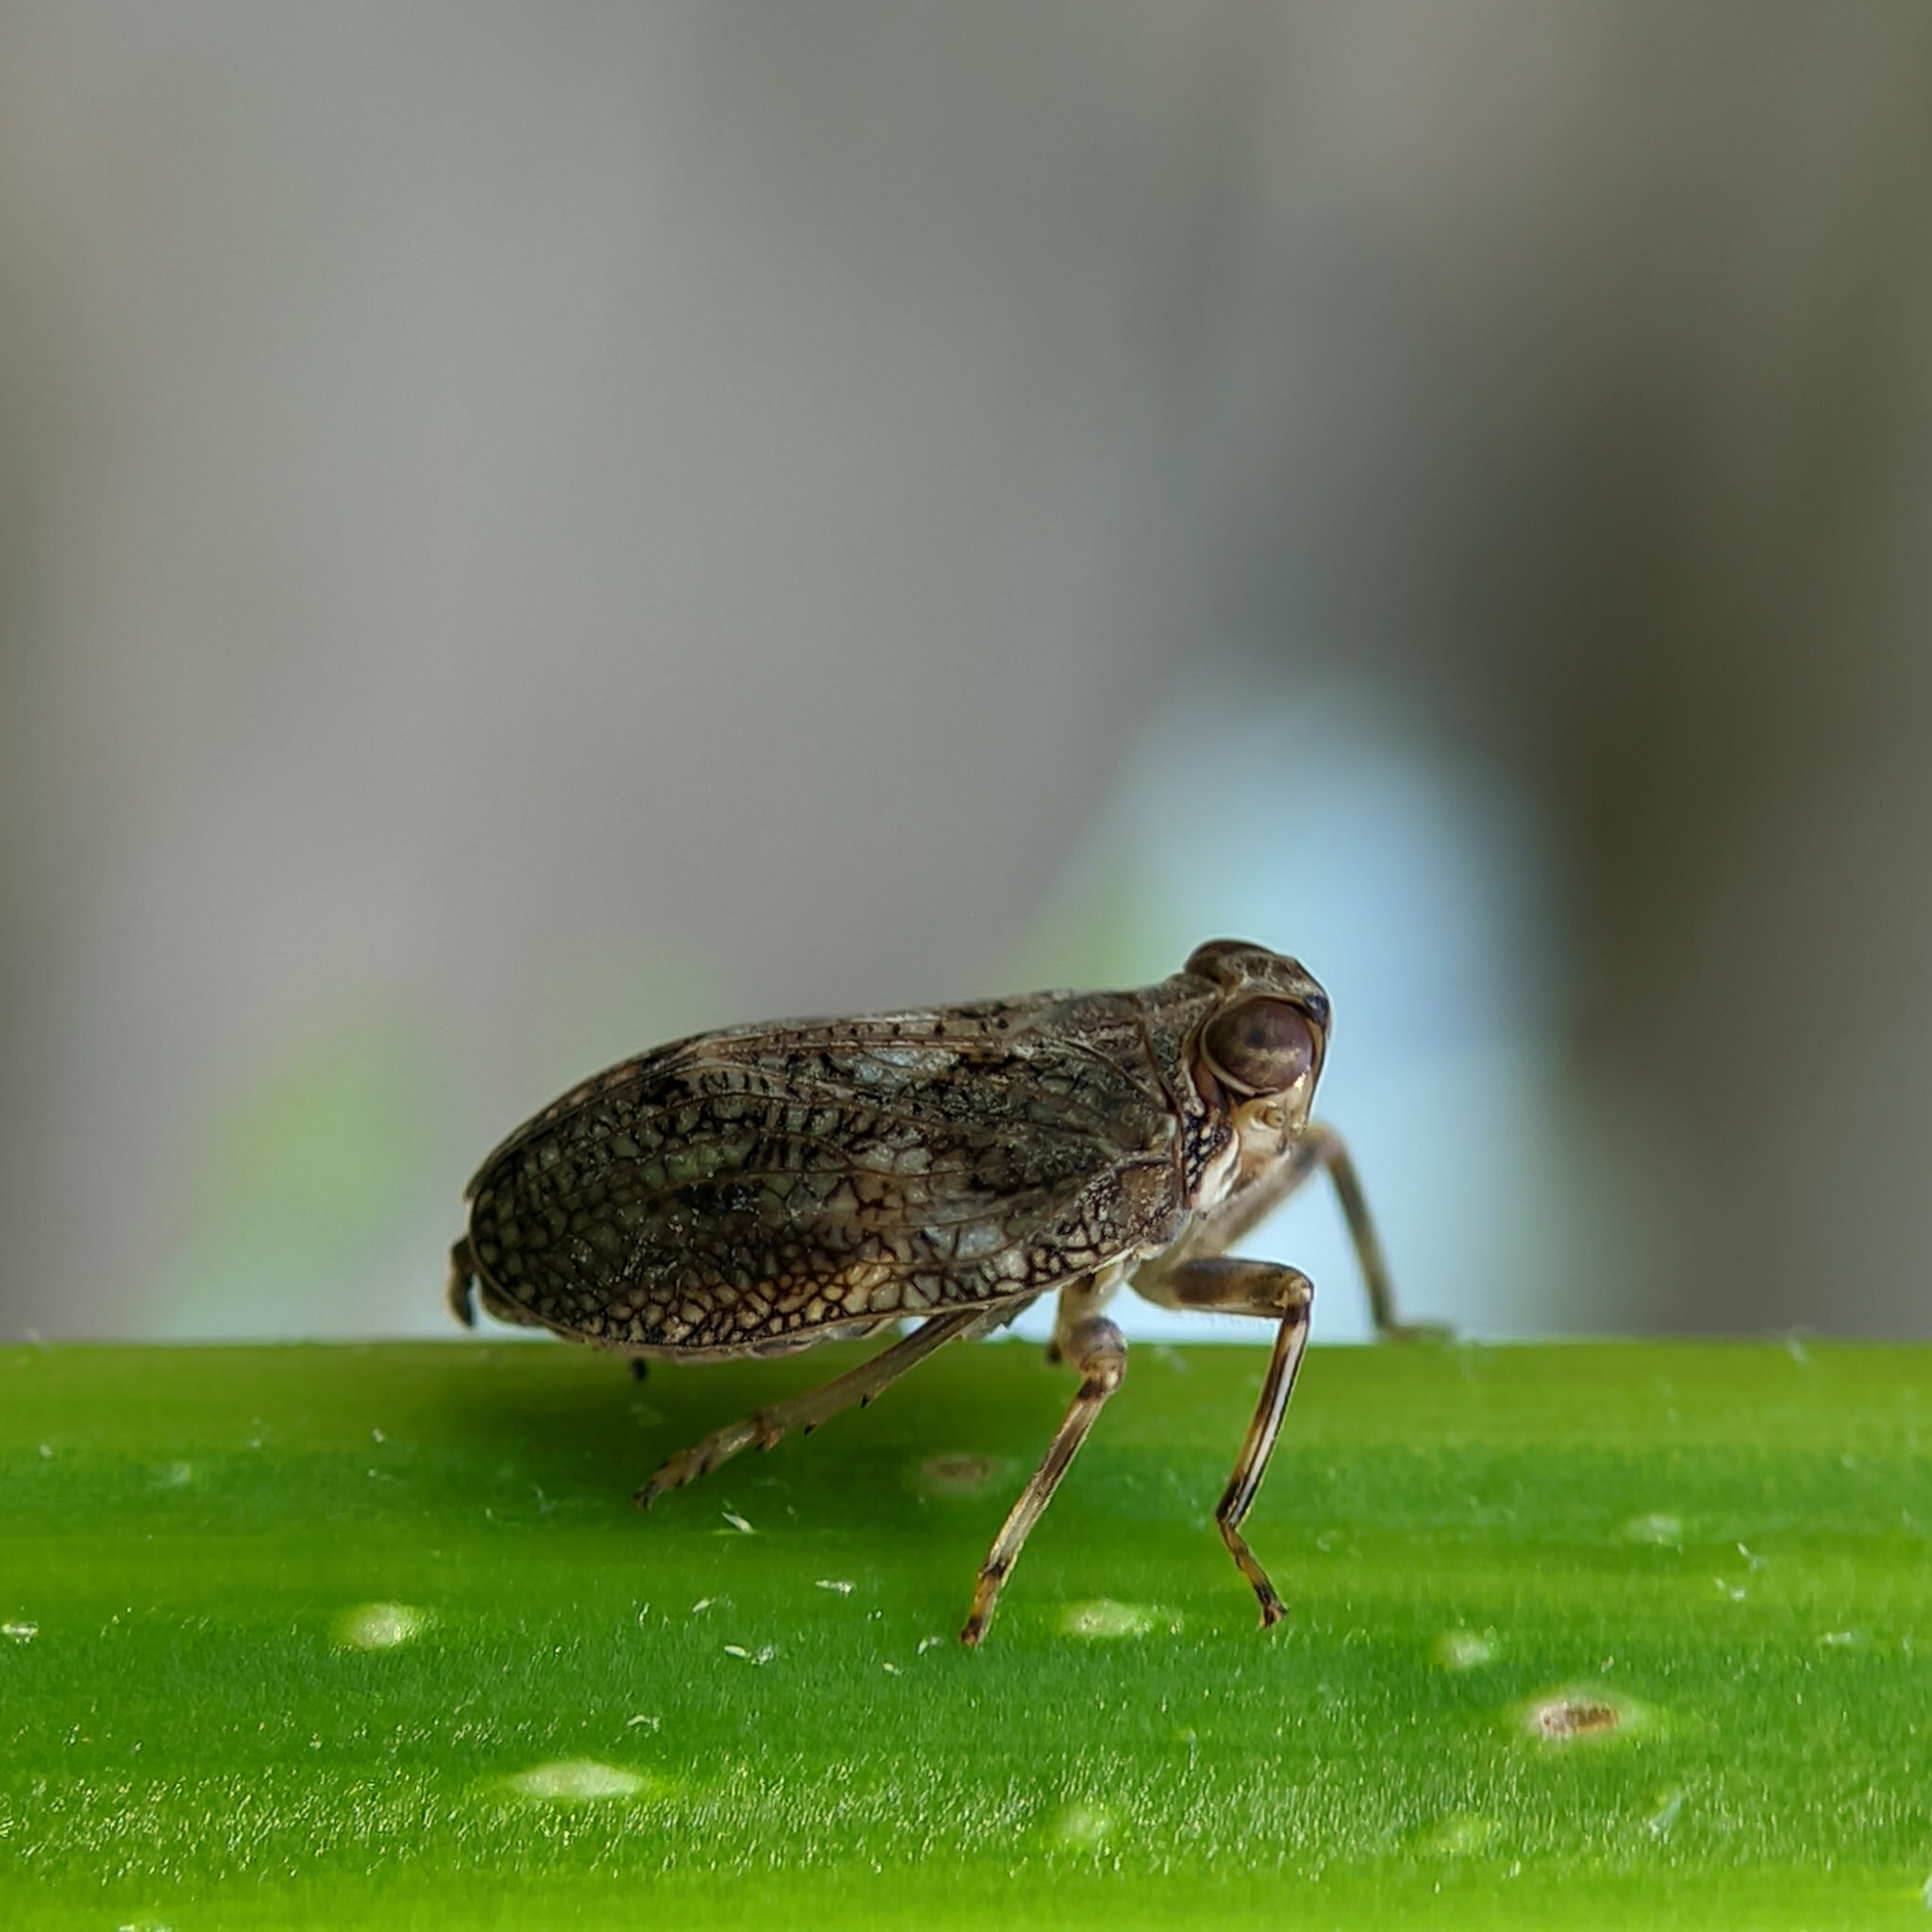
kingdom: Animalia
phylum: Arthropoda
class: Insecta
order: Hemiptera
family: Issidae
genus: Issus
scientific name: Issus coleoptratus
